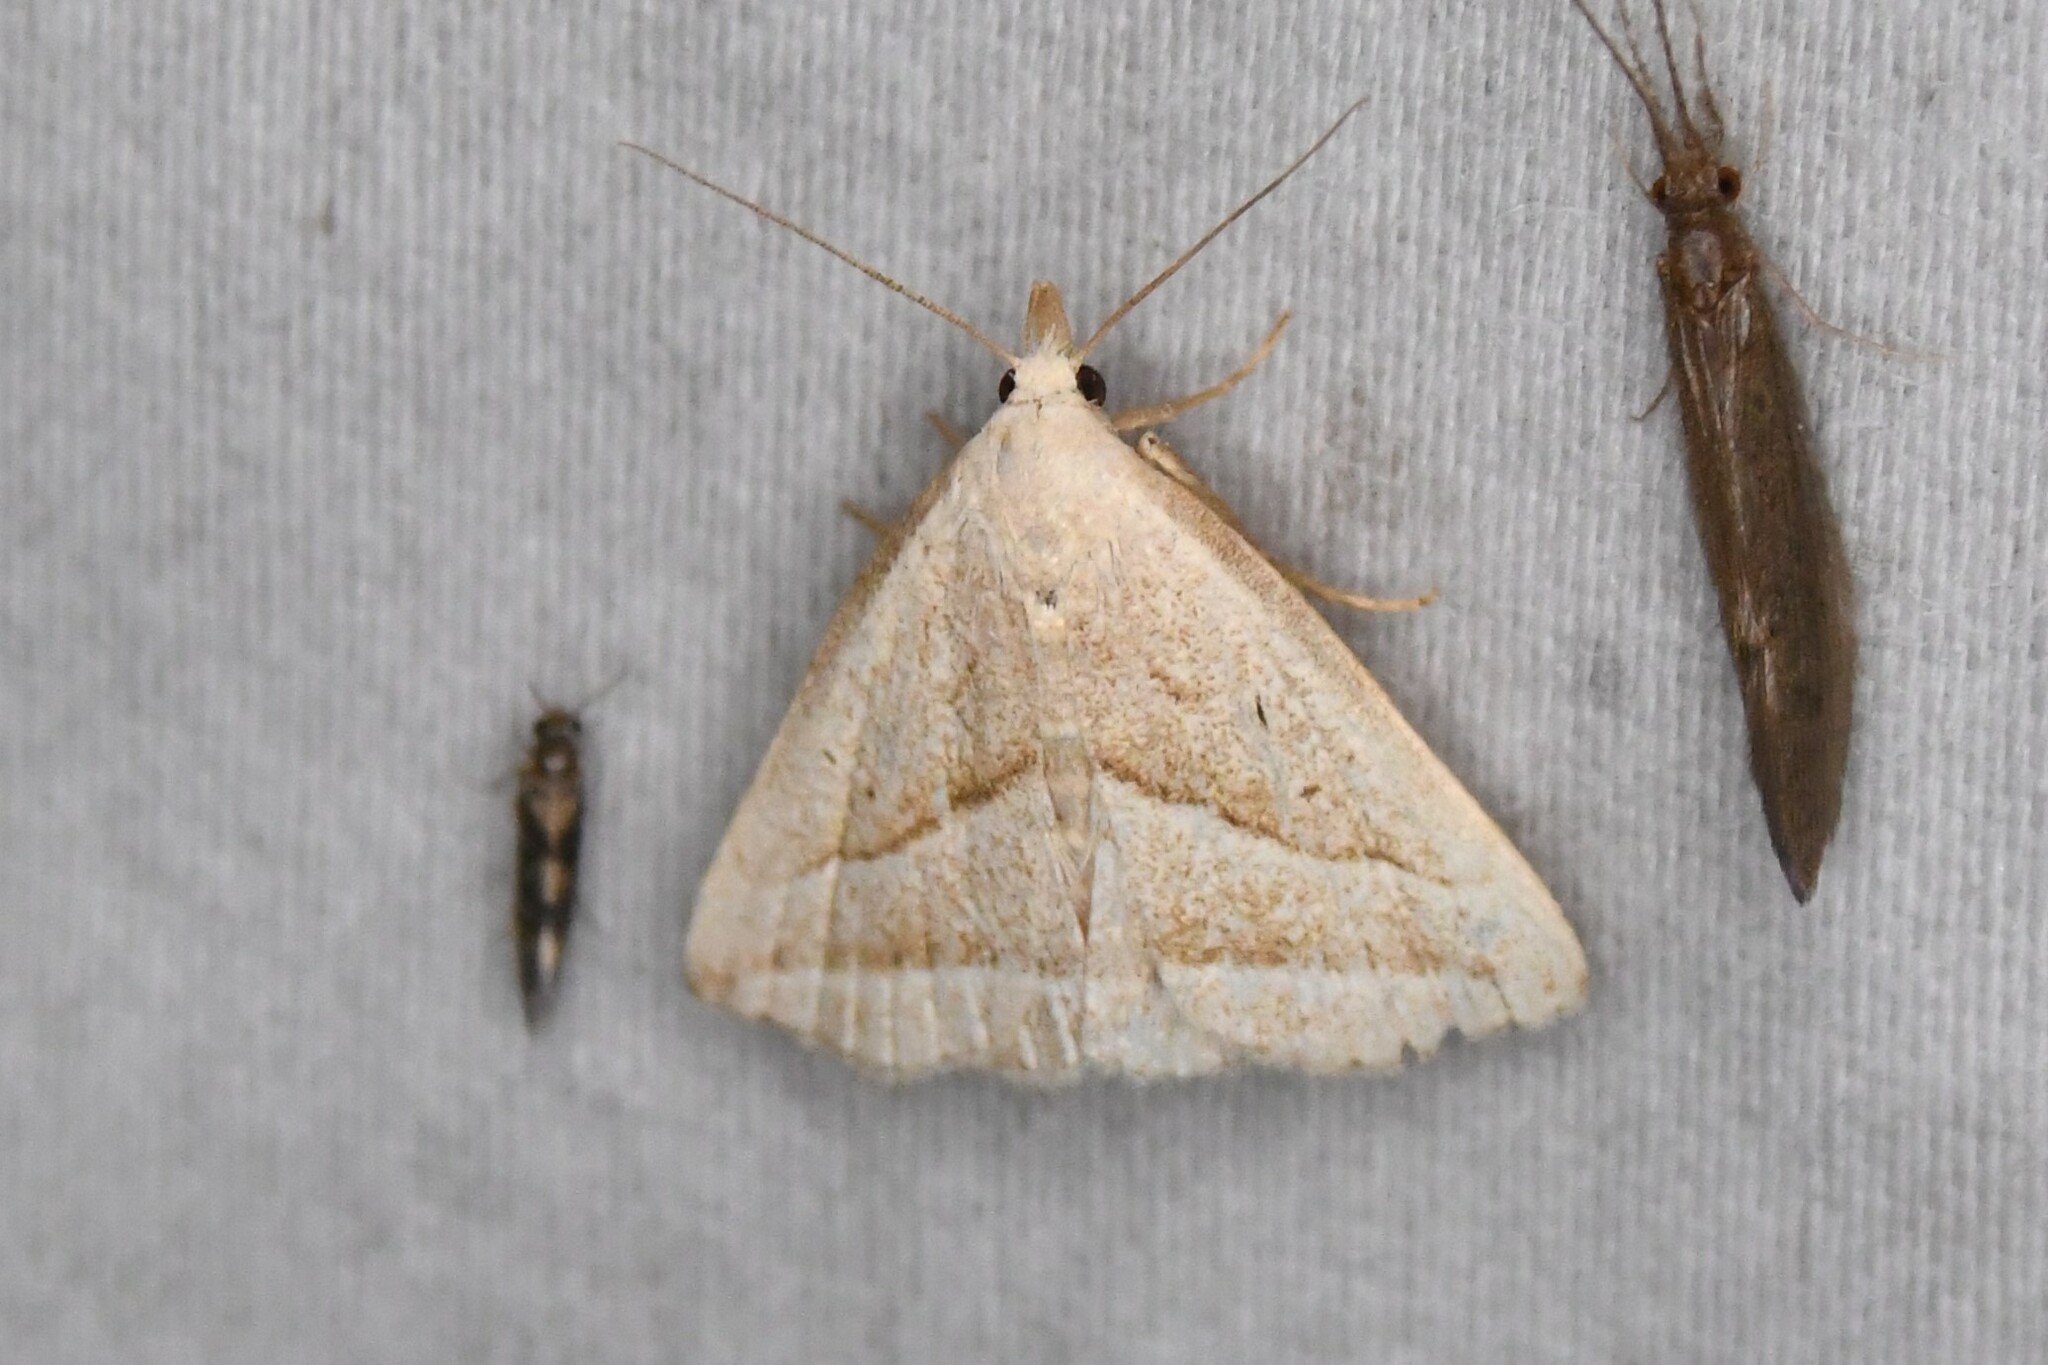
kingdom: Animalia
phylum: Arthropoda
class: Insecta
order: Lepidoptera
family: Erebidae
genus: Macrochilo
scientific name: Macrochilo absorptalis
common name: Slant-lined owlet
